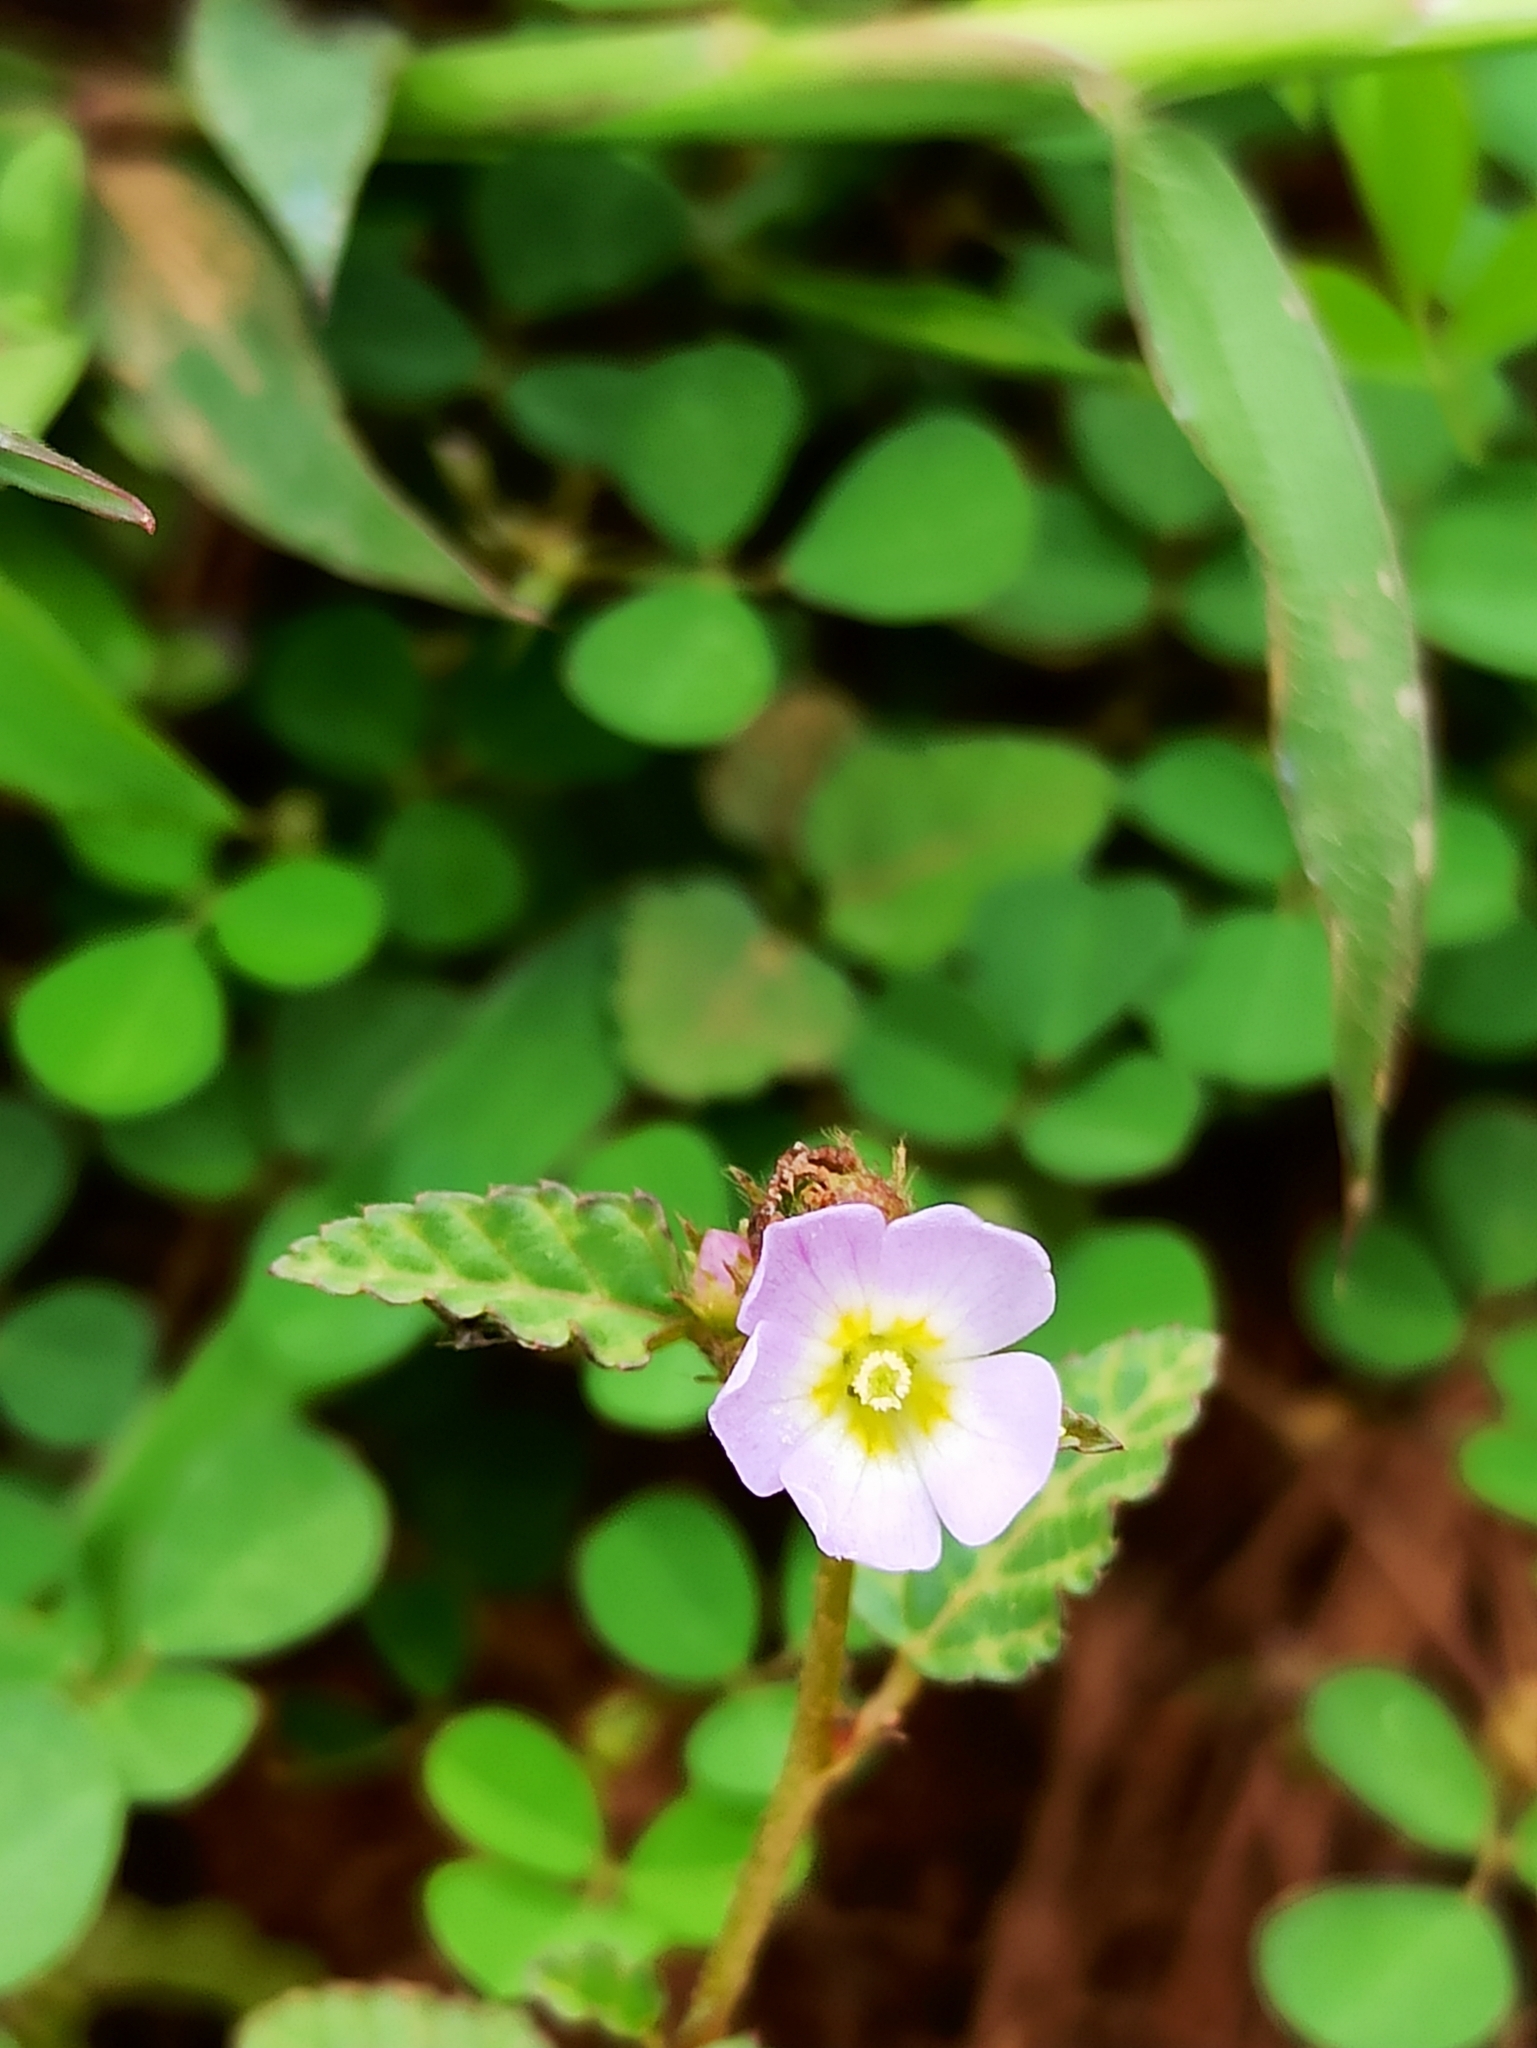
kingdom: Plantae
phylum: Tracheophyta
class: Magnoliopsida
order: Malvales
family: Malvaceae
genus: Melochia
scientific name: Melochia corchorifolia
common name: Chocolateweed
